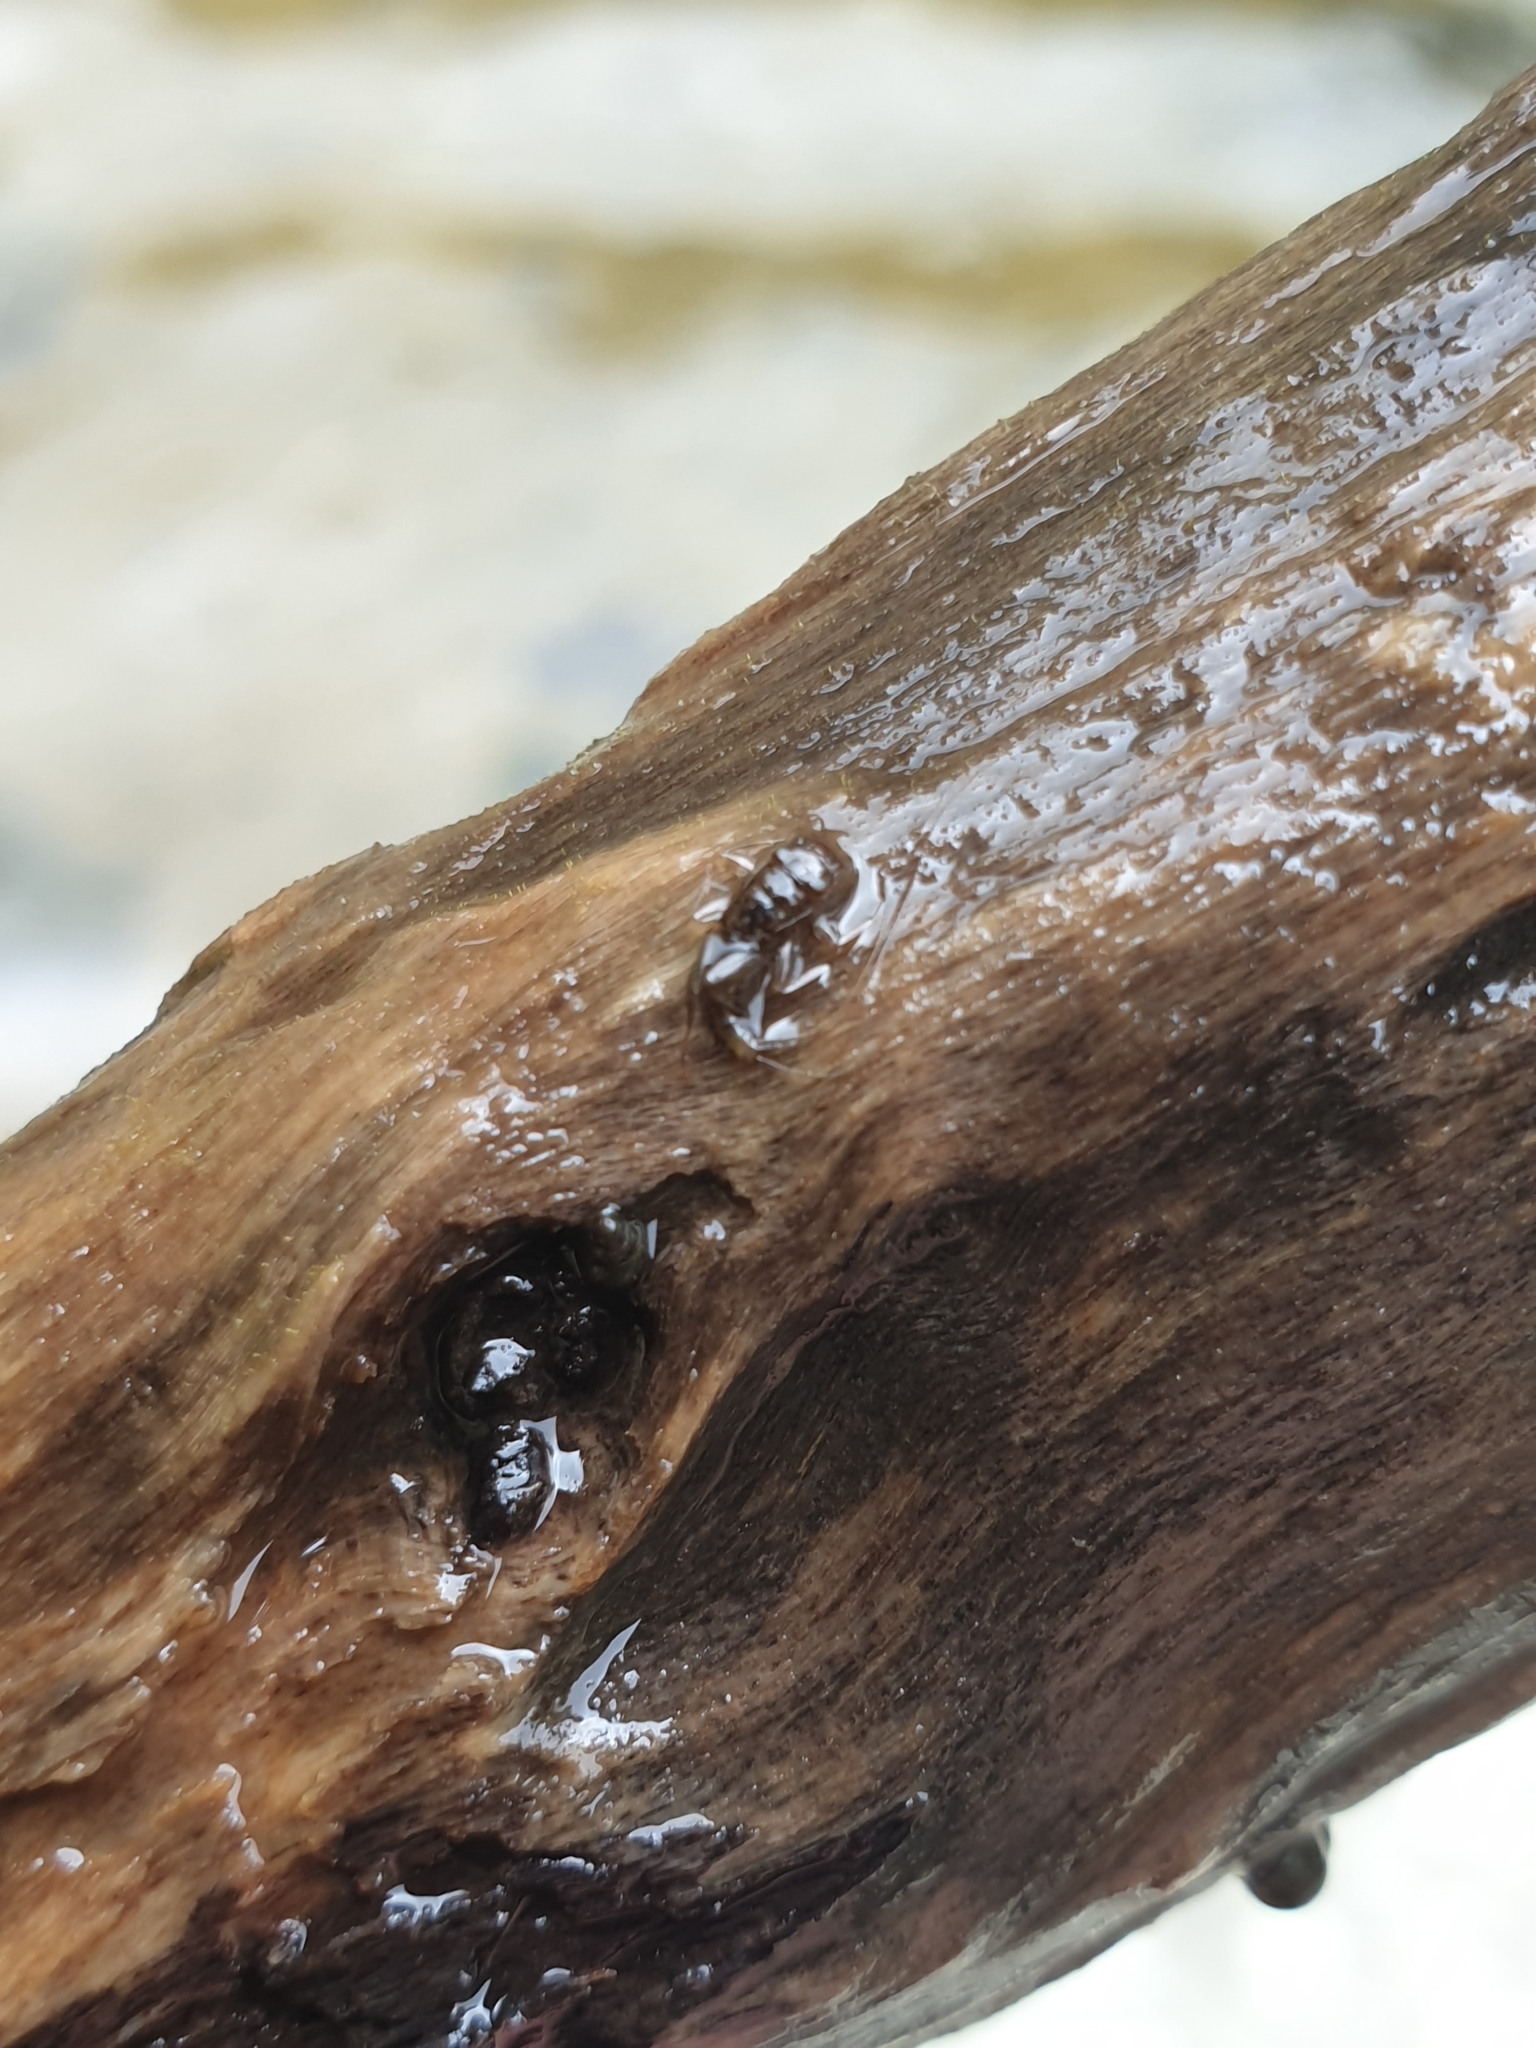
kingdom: Animalia
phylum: Mollusca
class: Gastropoda
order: Littorinimorpha
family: Tateidae
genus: Potamopyrgus
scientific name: Potamopyrgus antipodarum
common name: Jenkins' spire snail
